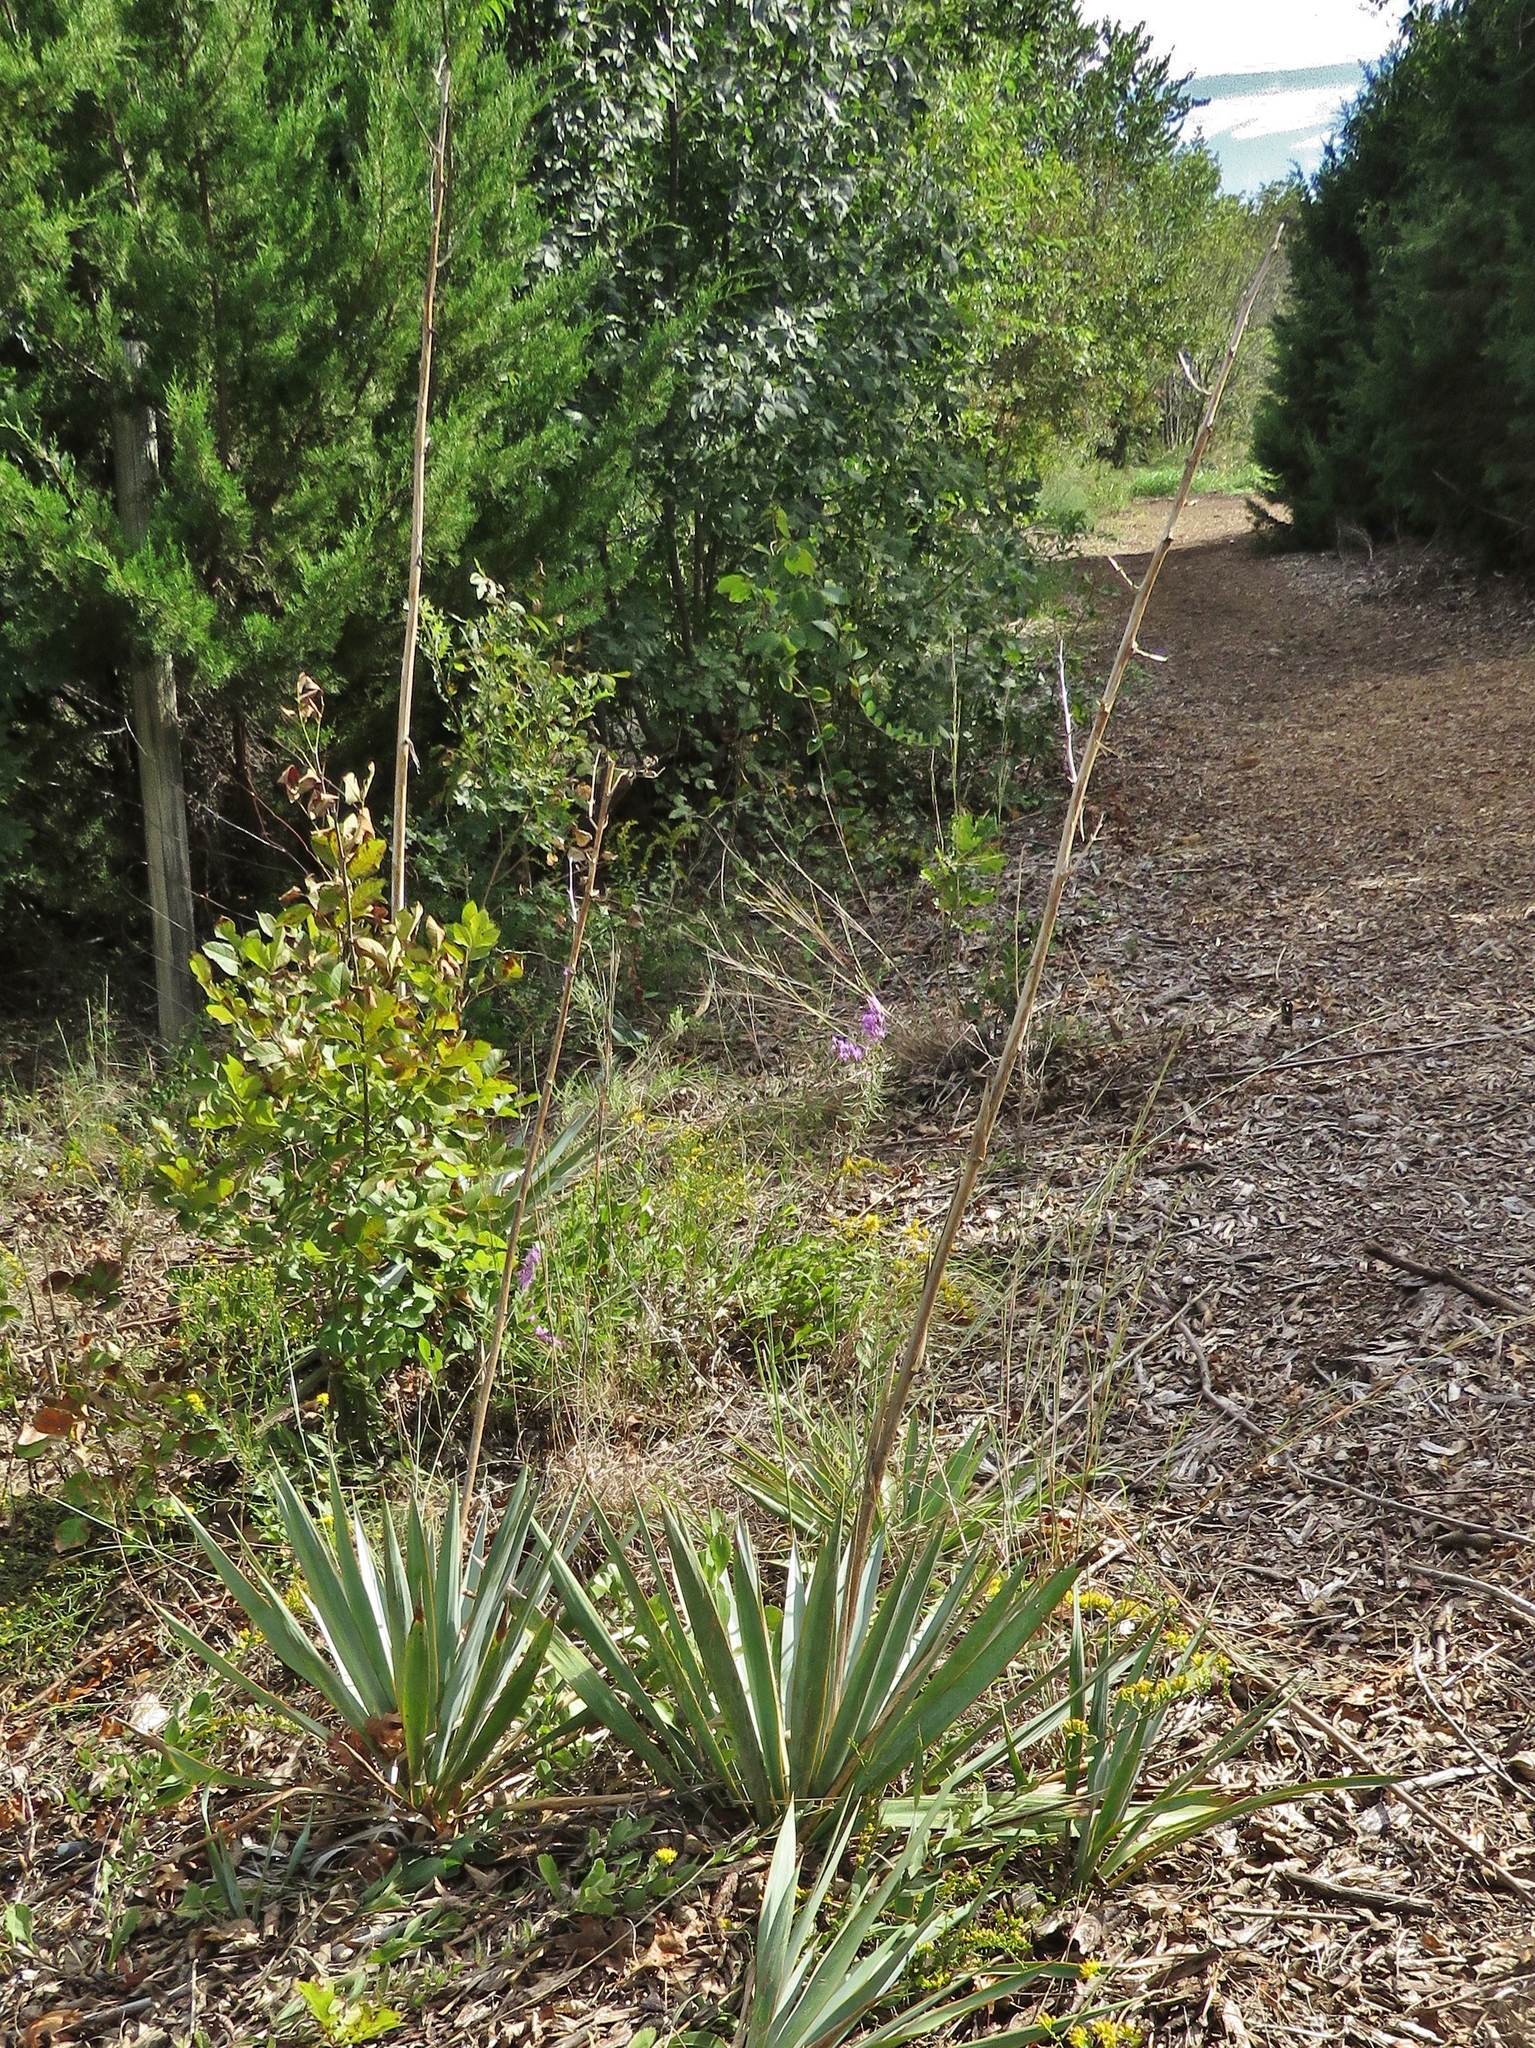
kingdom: Plantae
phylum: Tracheophyta
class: Liliopsida
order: Asparagales
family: Asparagaceae
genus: Yucca
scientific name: Yucca pallida
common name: Pale leaf yucca
